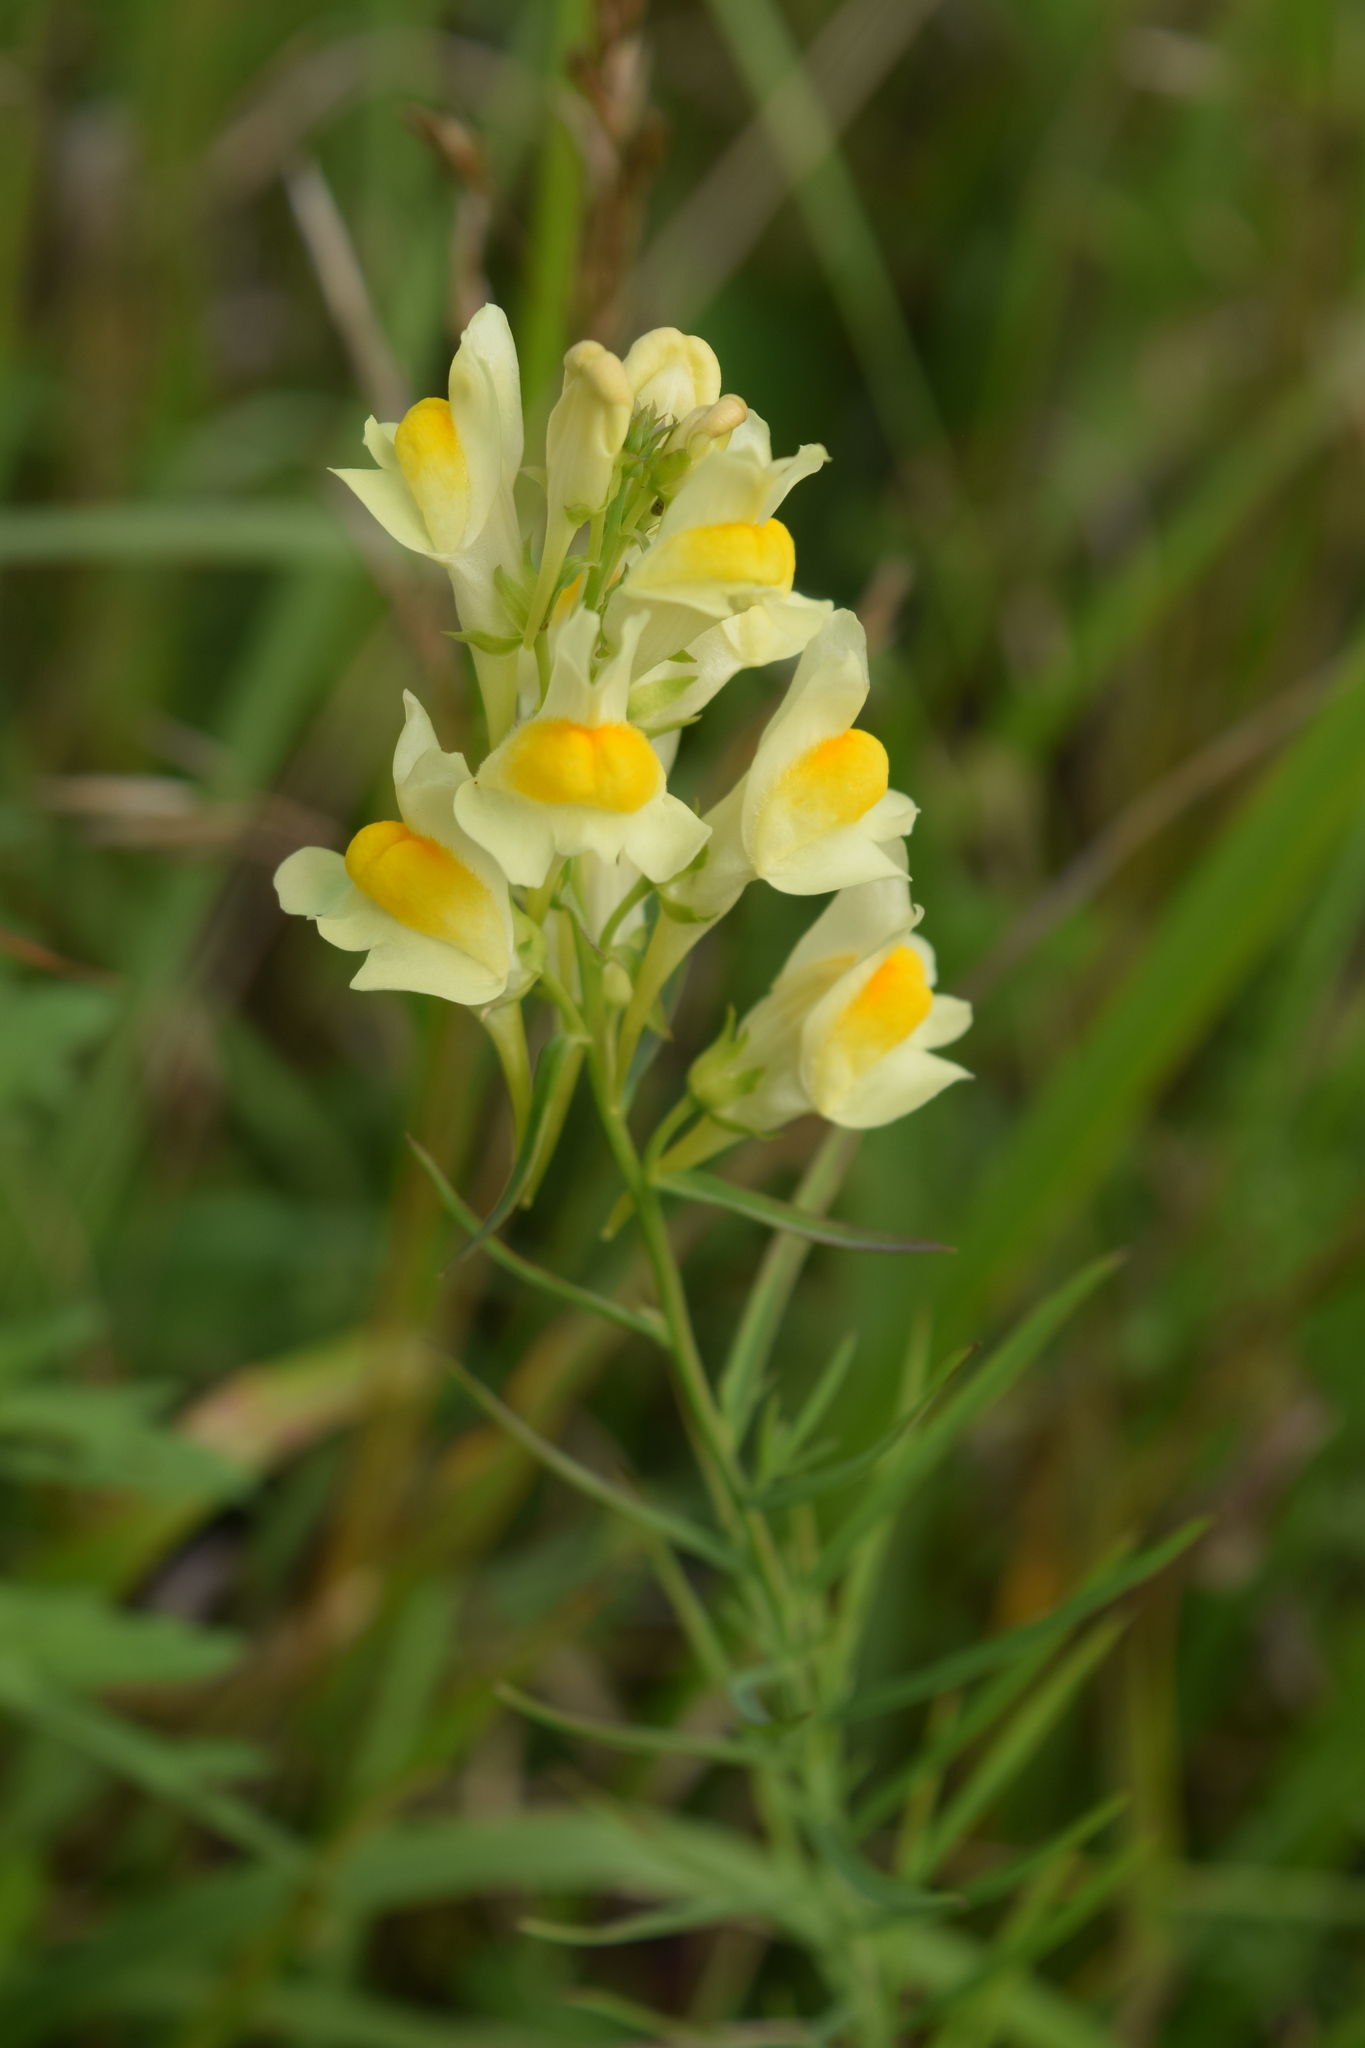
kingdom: Plantae
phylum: Tracheophyta
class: Magnoliopsida
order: Lamiales
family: Plantaginaceae
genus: Linaria
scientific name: Linaria vulgaris
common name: Butter and eggs
